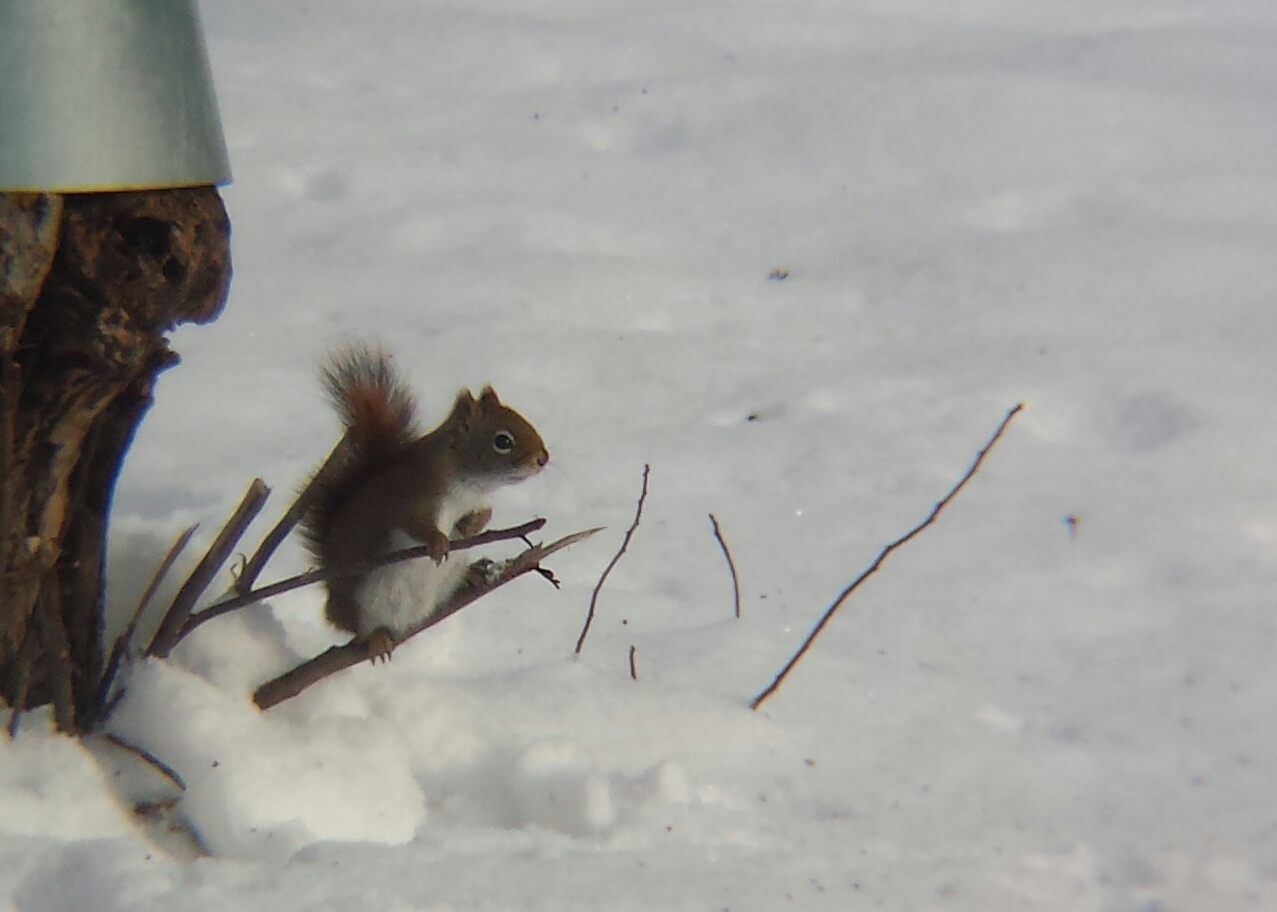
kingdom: Animalia
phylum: Chordata
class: Mammalia
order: Rodentia
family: Sciuridae
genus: Tamiasciurus
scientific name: Tamiasciurus hudsonicus
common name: Red squirrel
